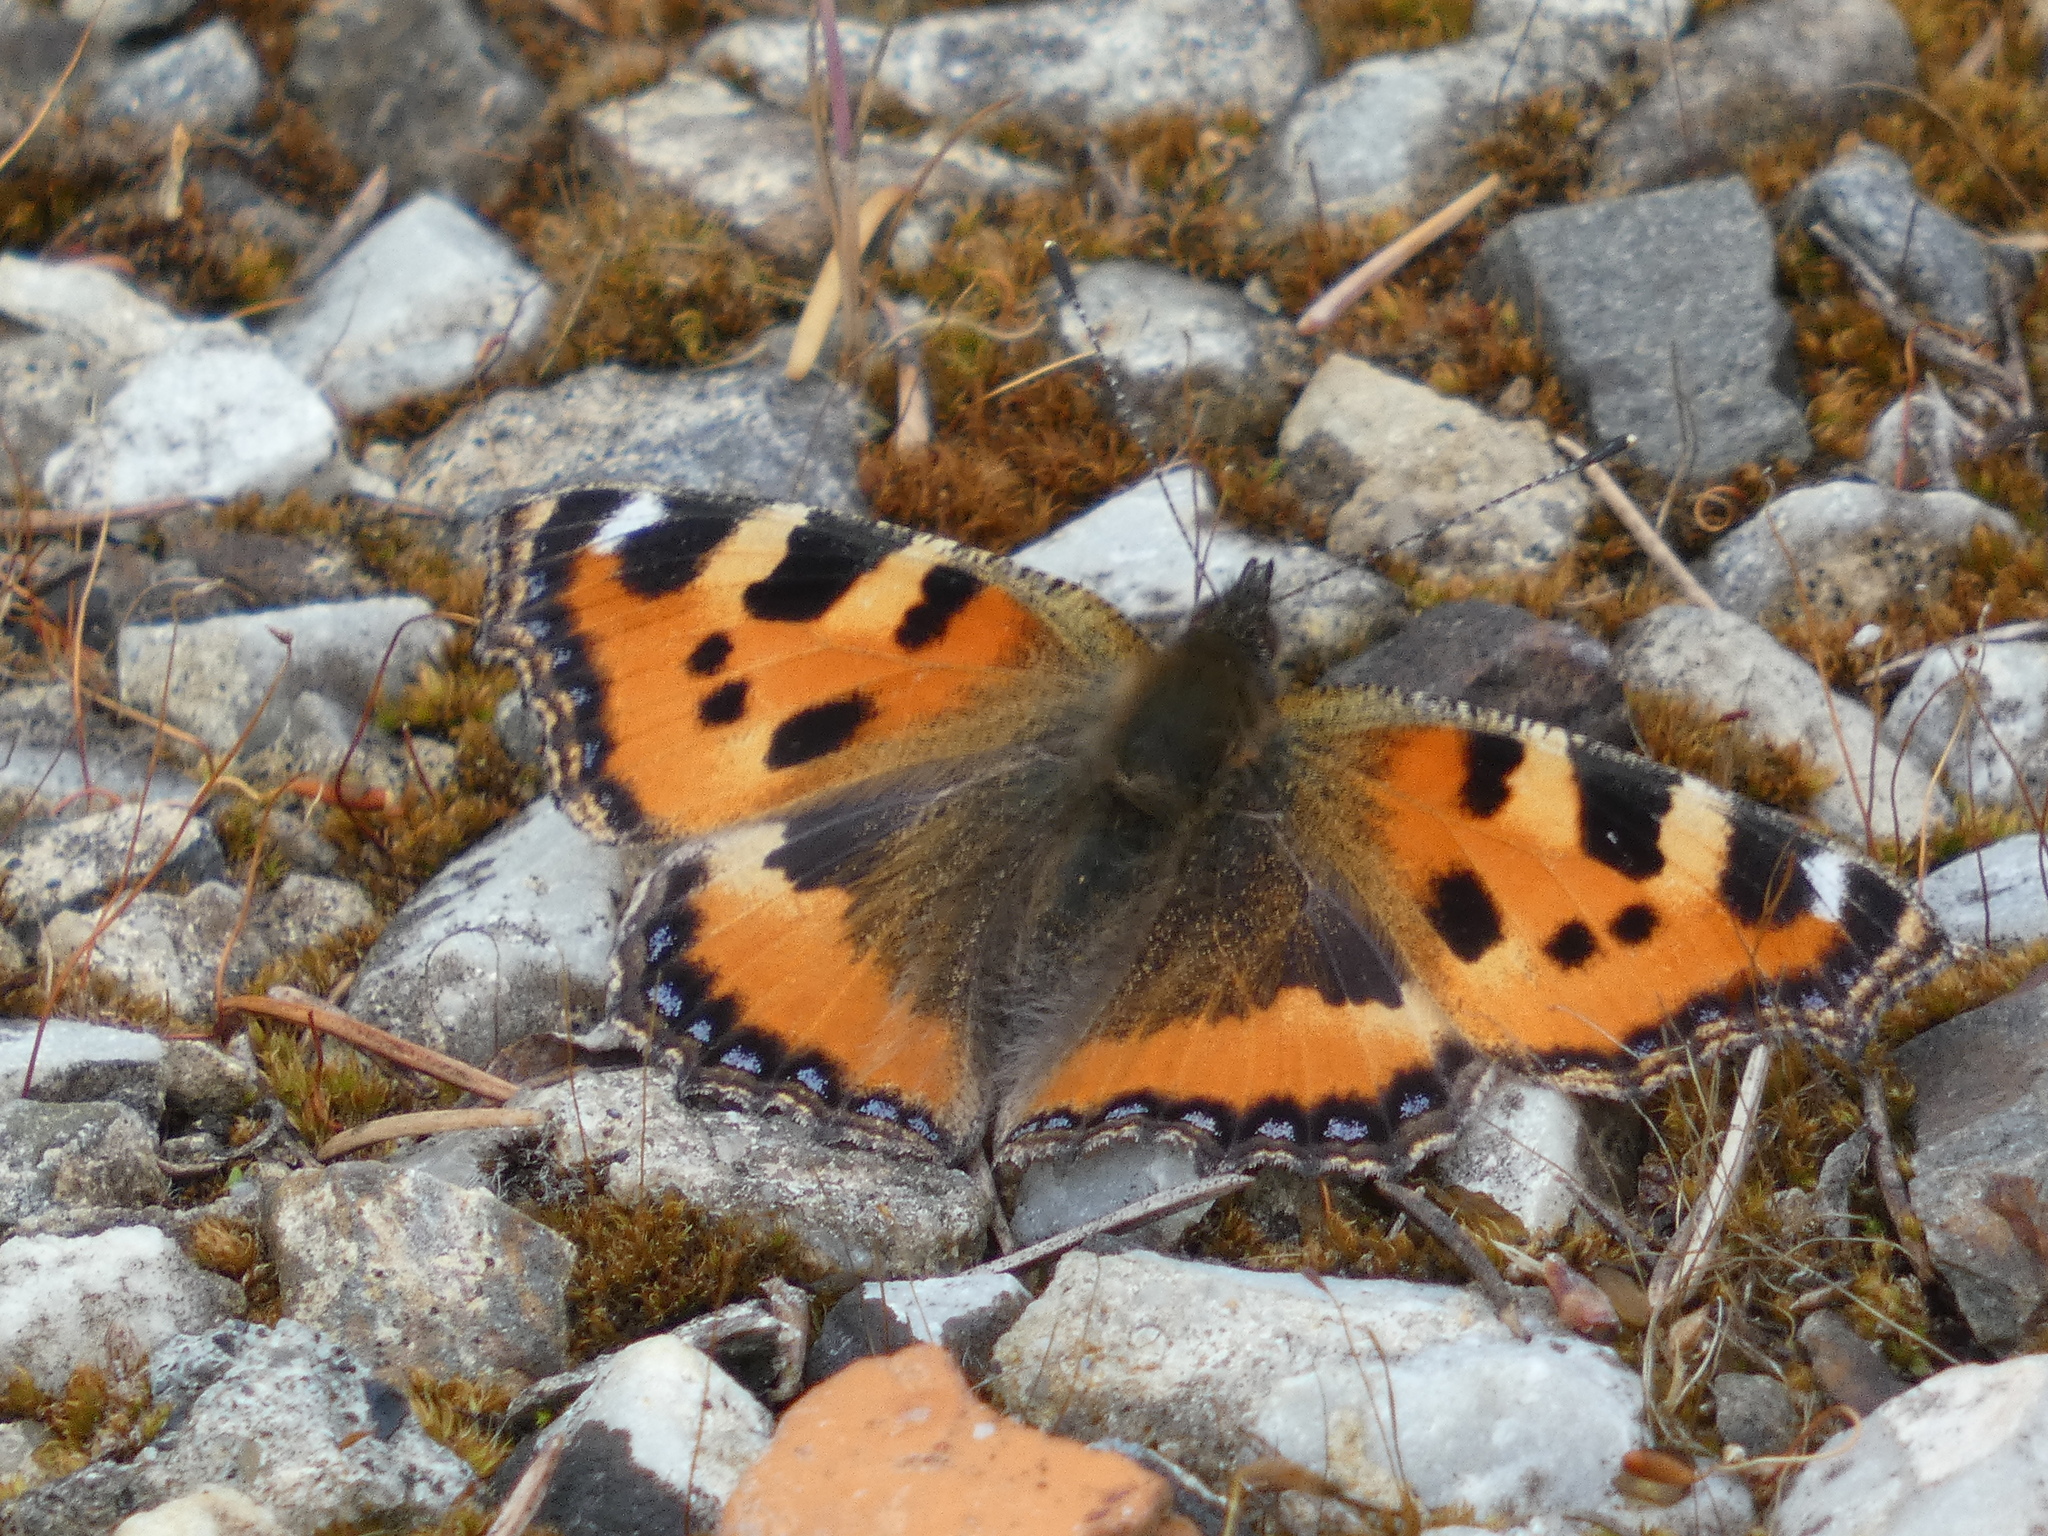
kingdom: Animalia
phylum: Arthropoda
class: Insecta
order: Lepidoptera
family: Nymphalidae
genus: Aglais
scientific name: Aglais urticae
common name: Small tortoiseshell
